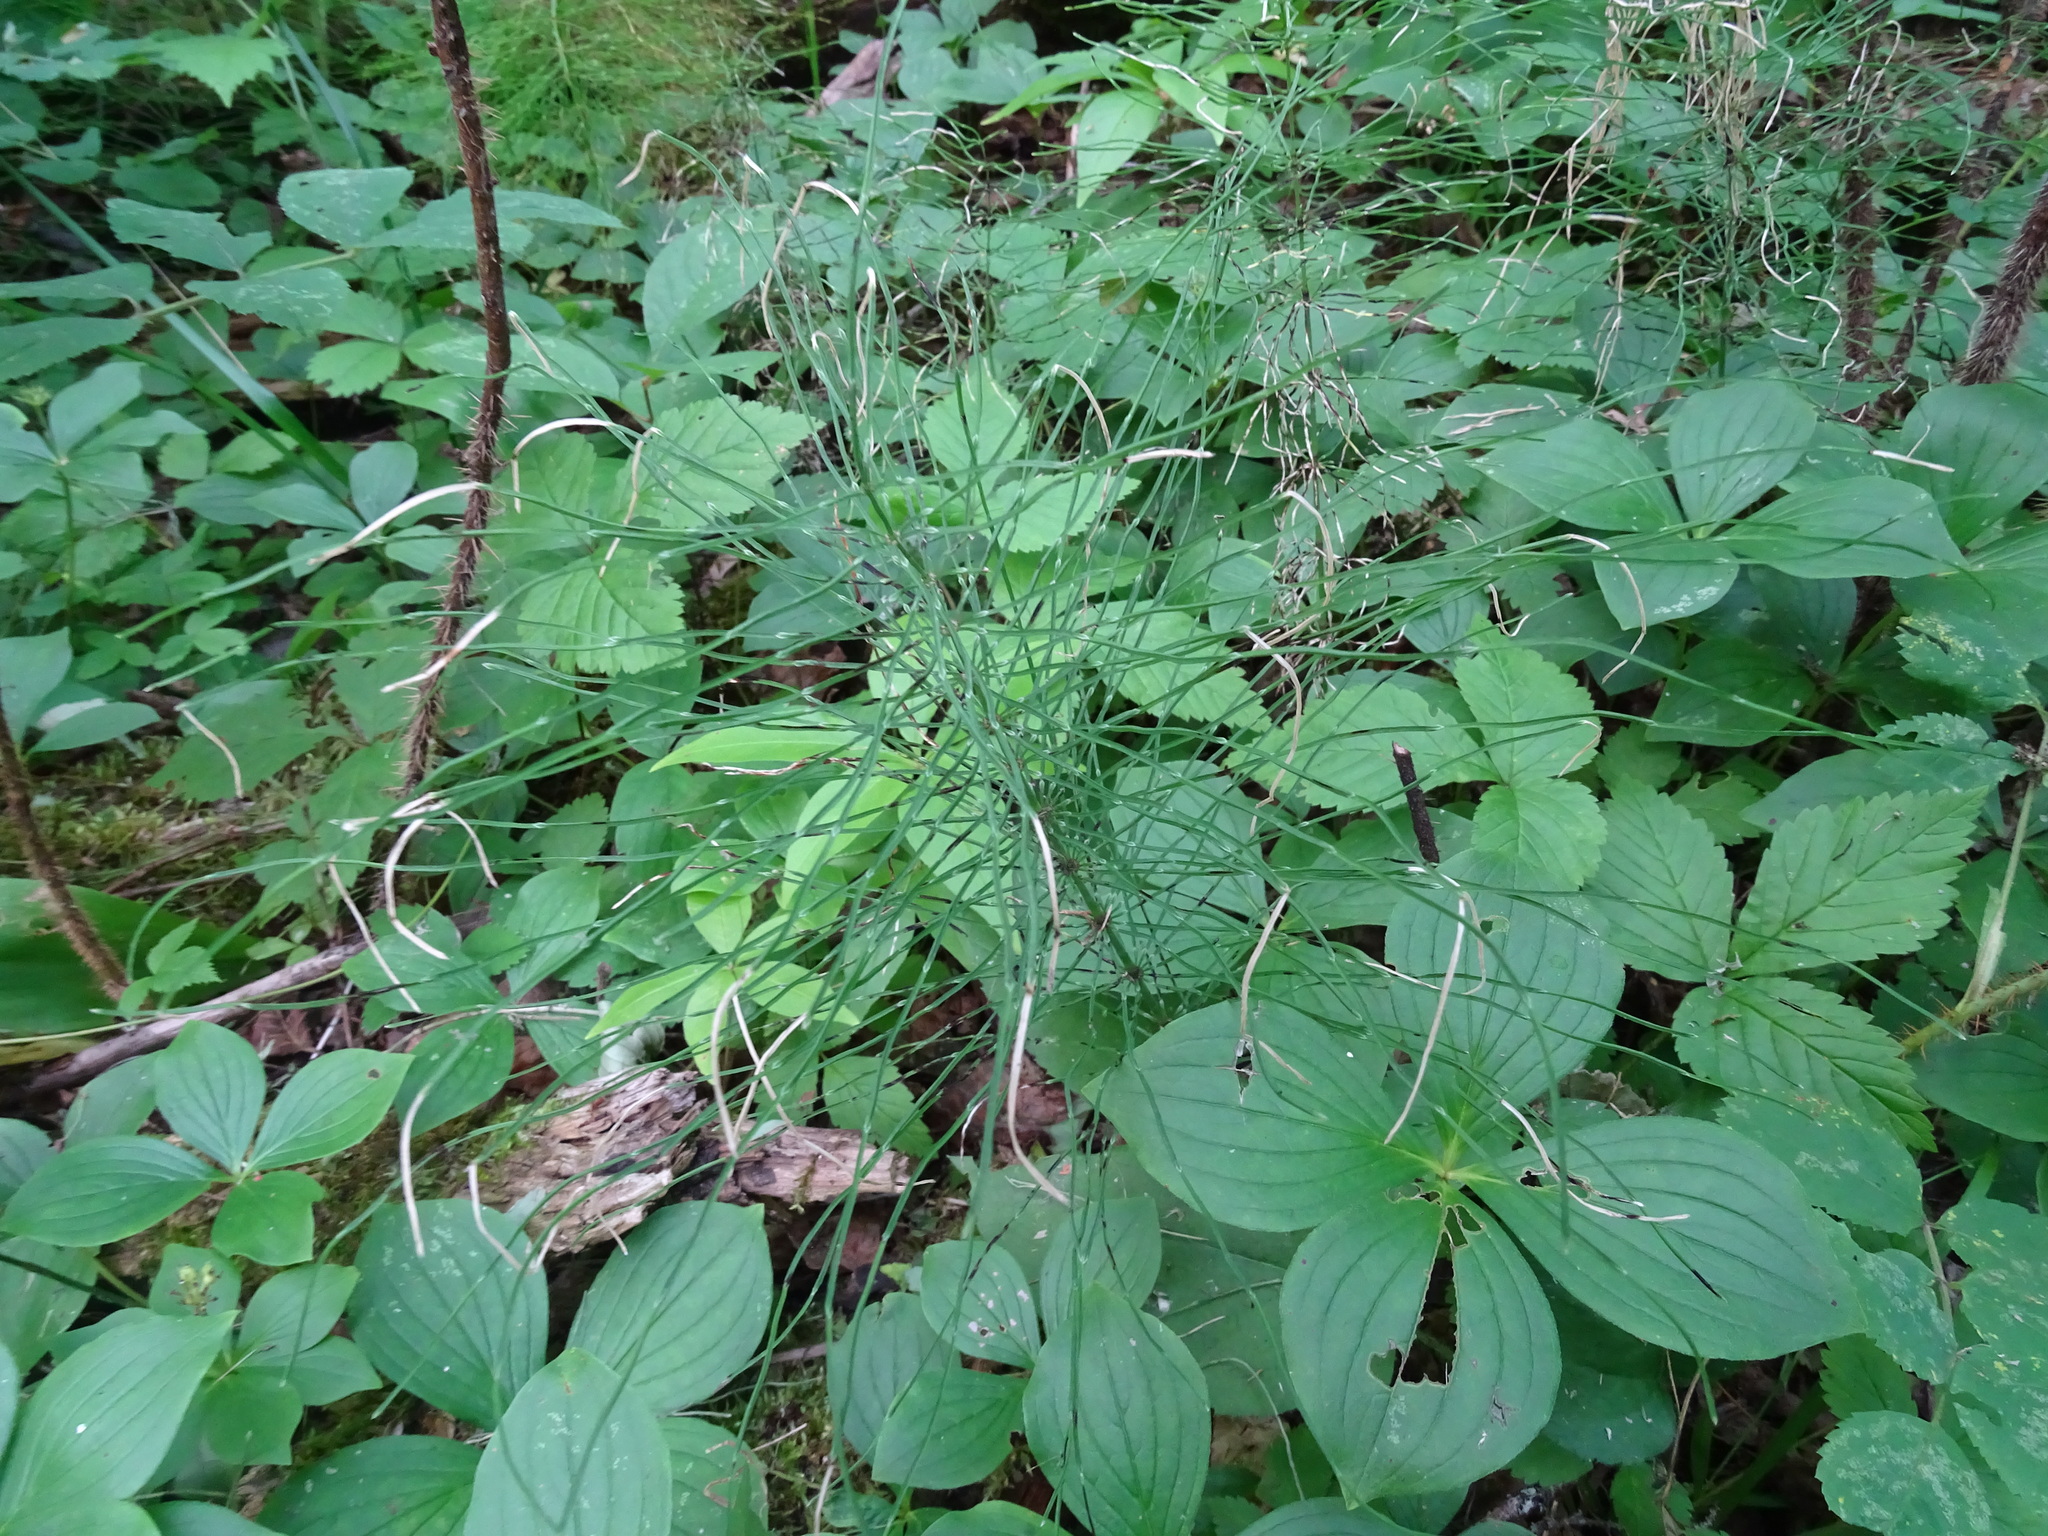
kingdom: Plantae
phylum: Tracheophyta
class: Polypodiopsida
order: Equisetales
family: Equisetaceae
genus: Equisetum
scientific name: Equisetum pratense
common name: Meadow horsetail
